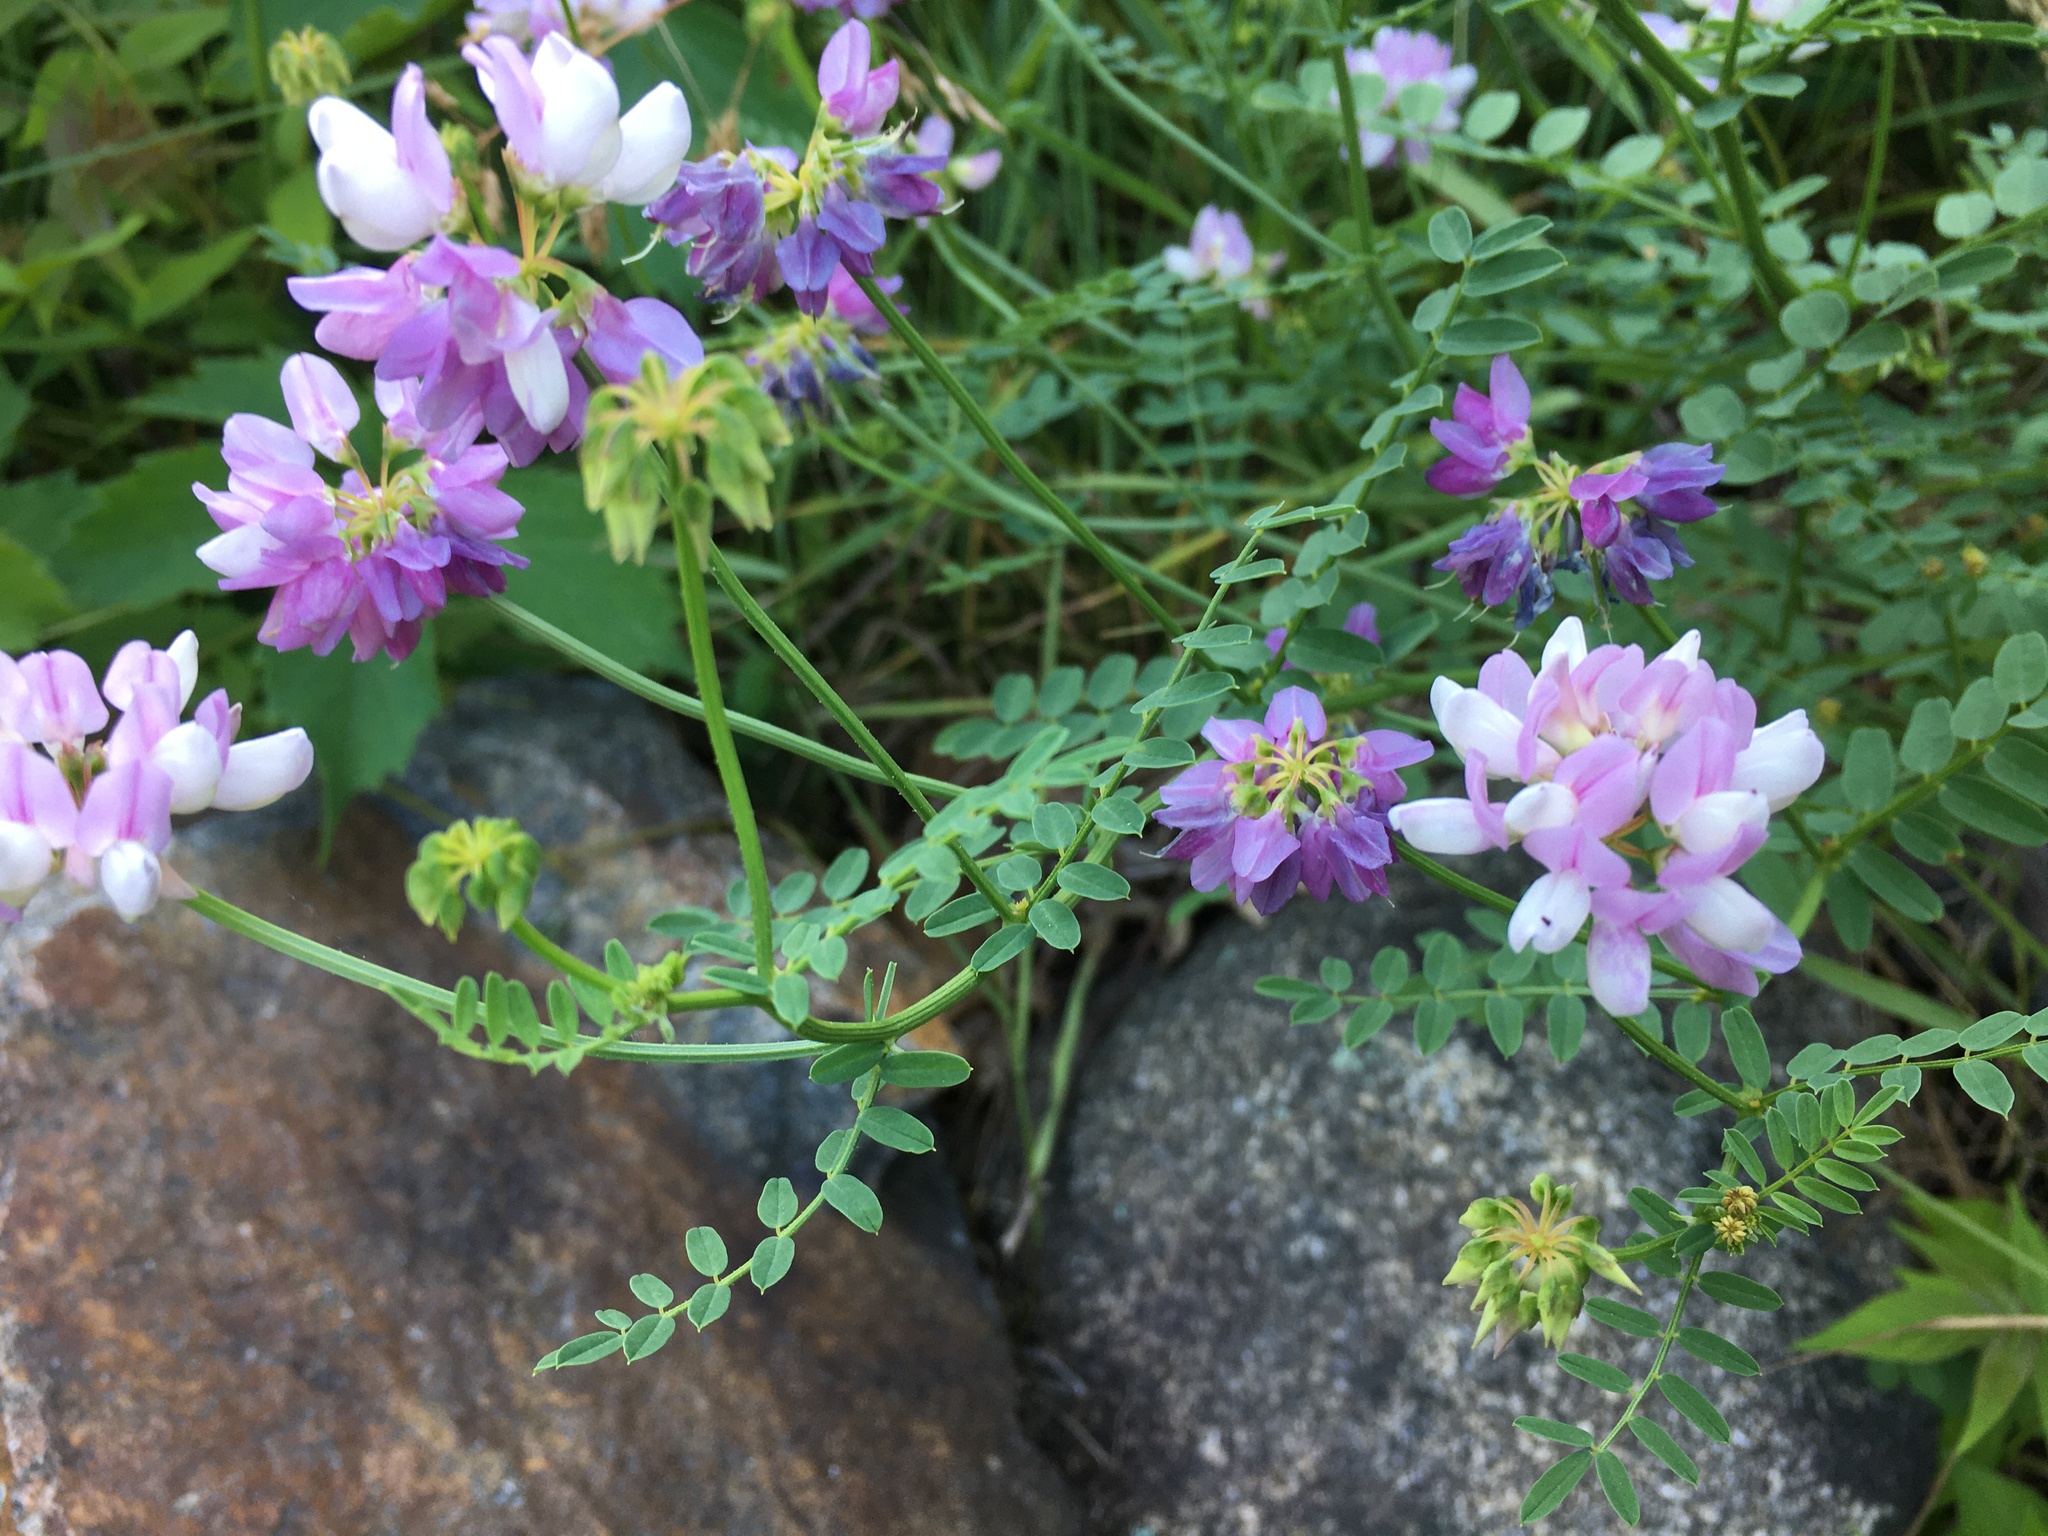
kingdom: Plantae
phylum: Tracheophyta
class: Magnoliopsida
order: Fabales
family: Fabaceae
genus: Coronilla
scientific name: Coronilla varia
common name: Crownvetch
